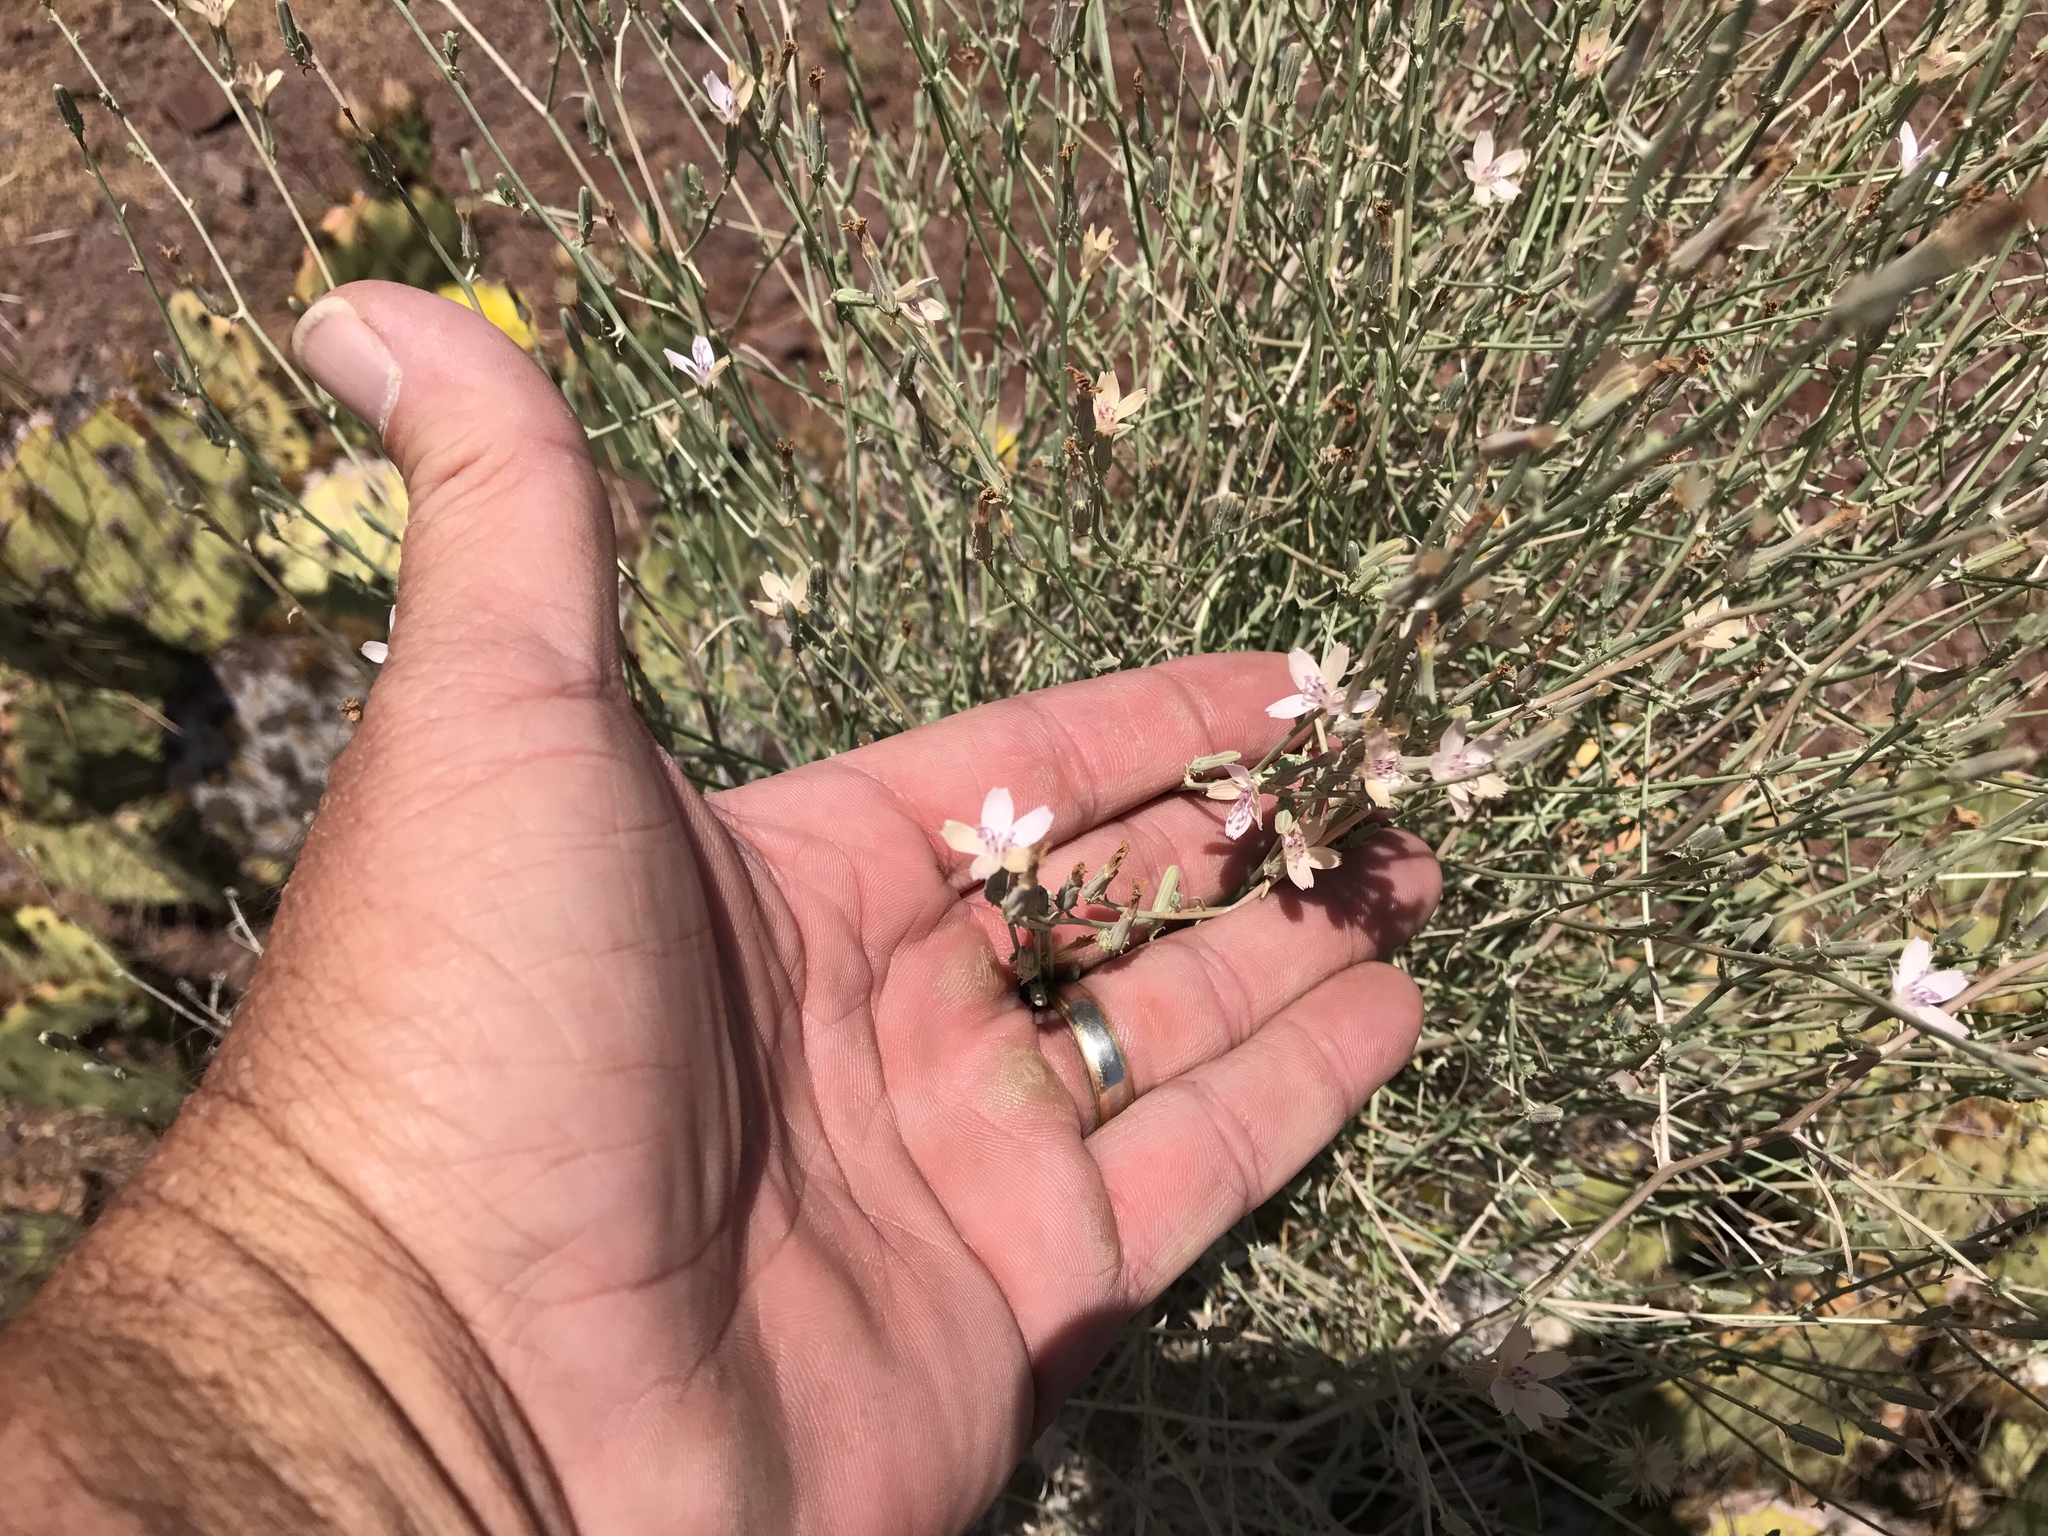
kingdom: Plantae
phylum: Tracheophyta
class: Magnoliopsida
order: Asterales
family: Asteraceae
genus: Stephanomeria
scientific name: Stephanomeria pauciflora
